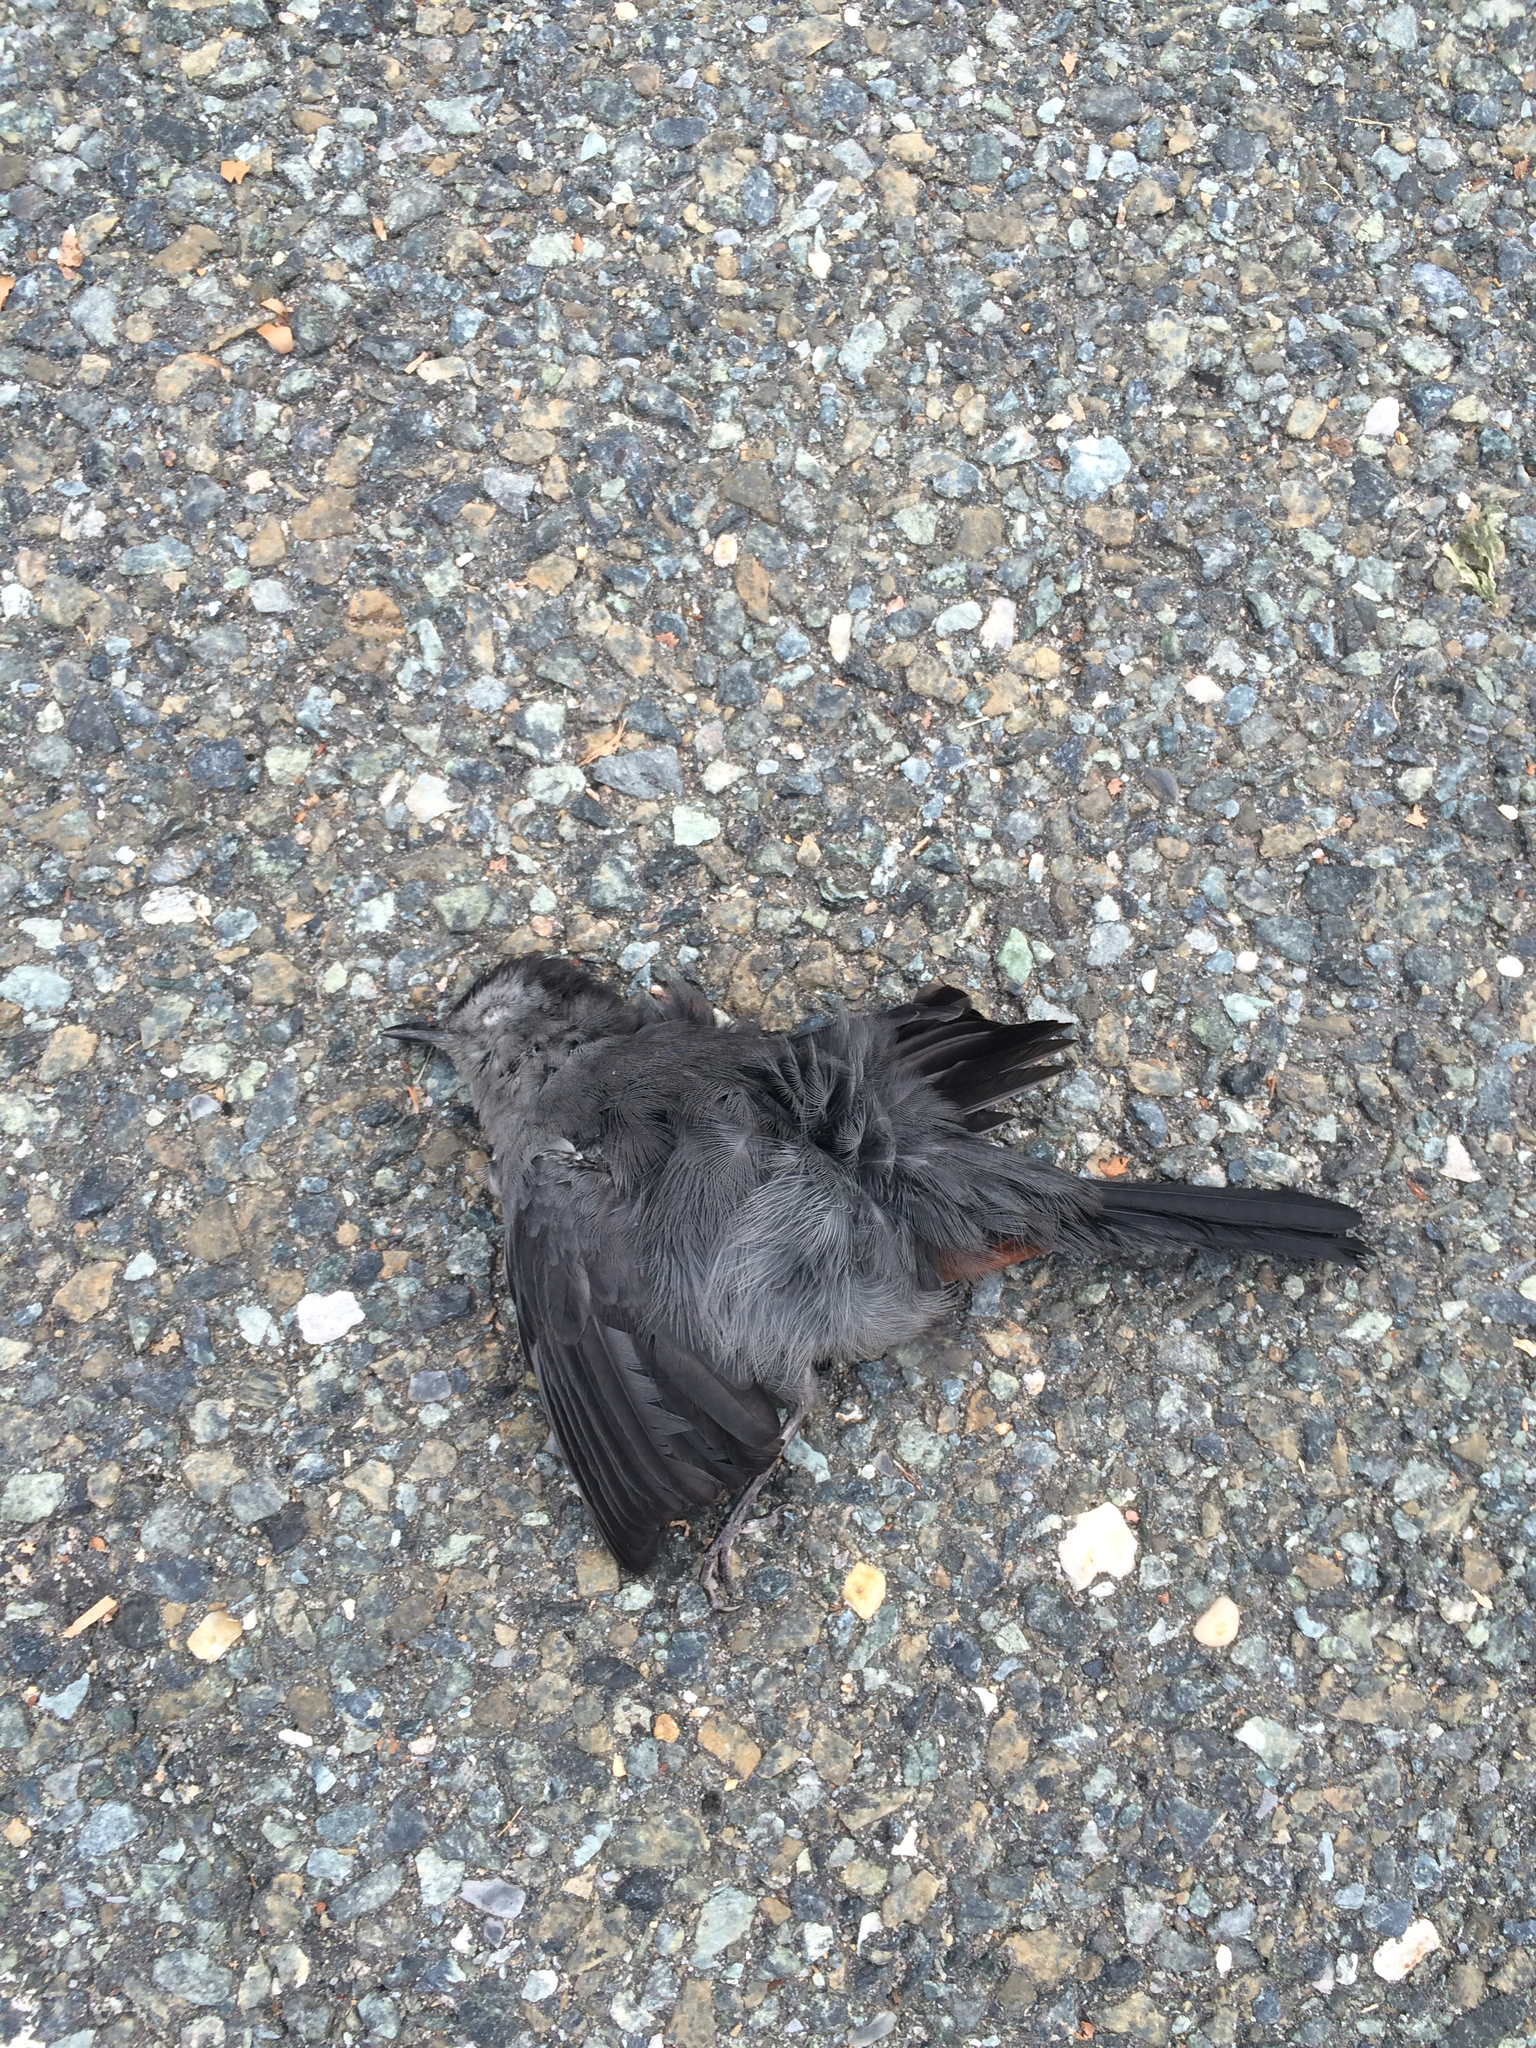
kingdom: Animalia
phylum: Chordata
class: Aves
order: Passeriformes
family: Mimidae
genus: Dumetella
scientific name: Dumetella carolinensis
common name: Gray catbird
